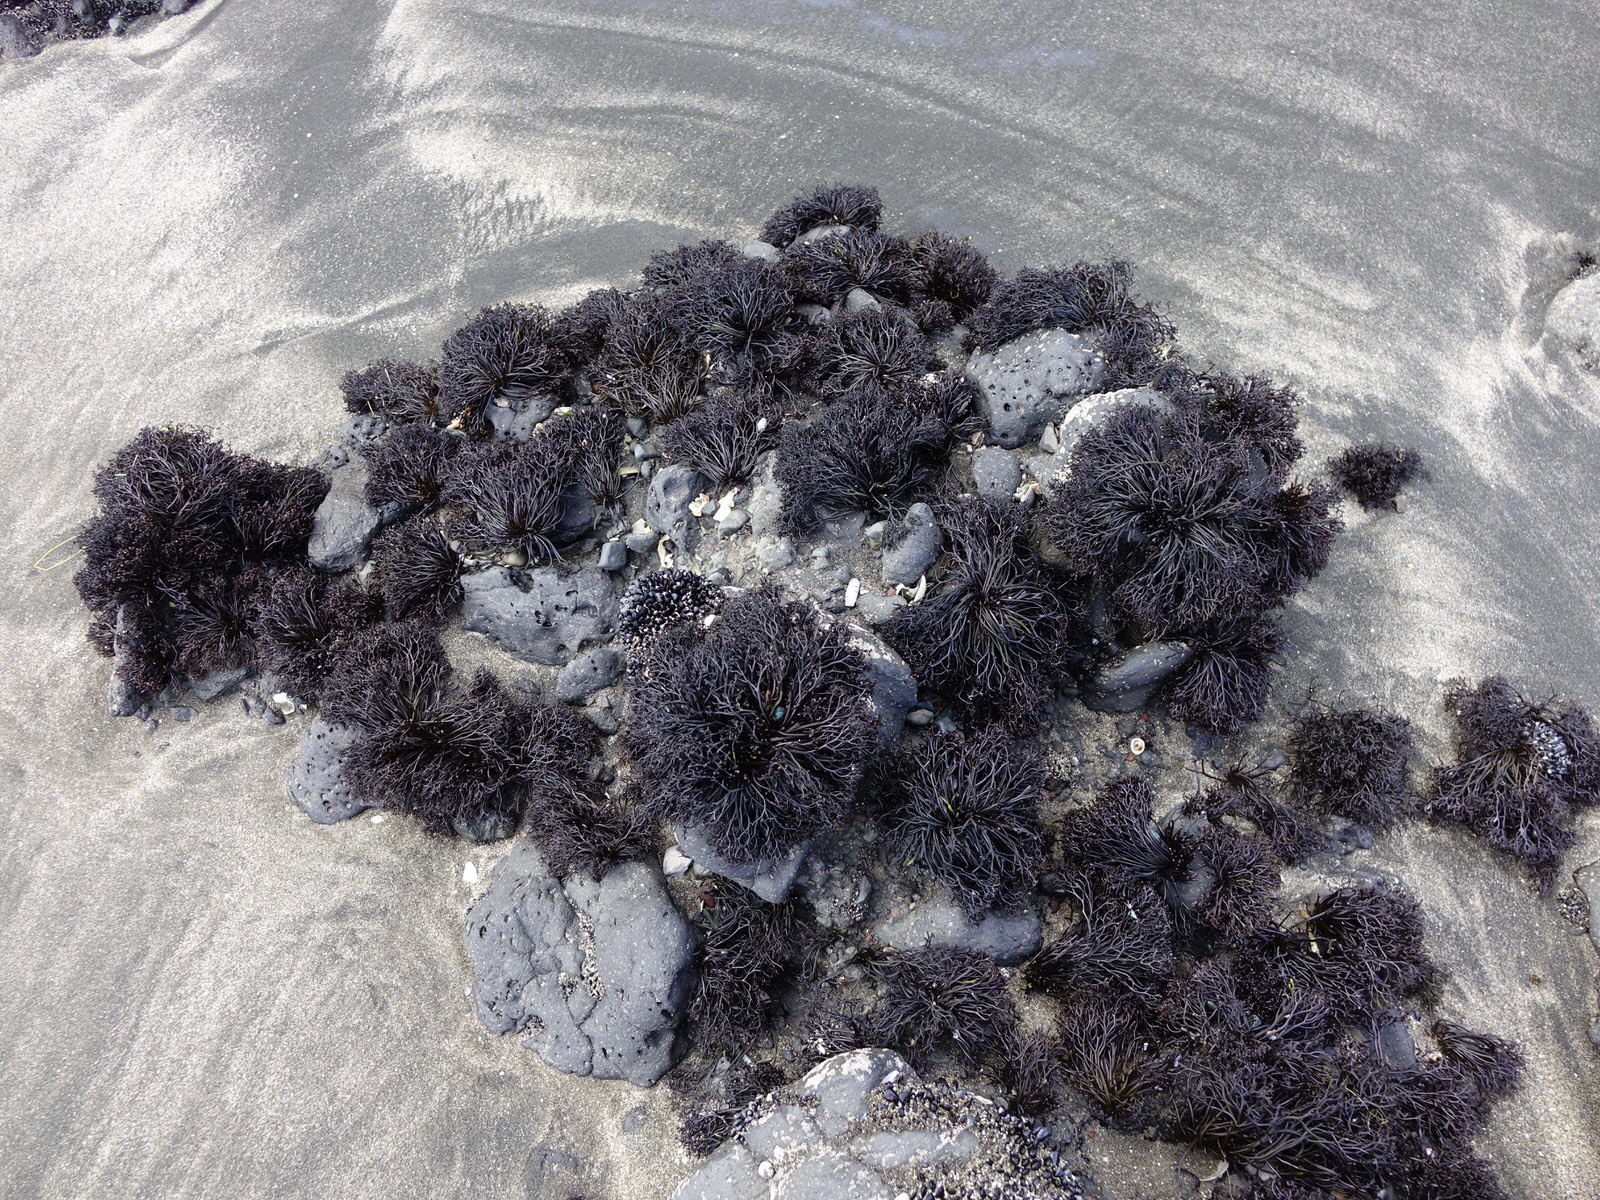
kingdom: Plantae
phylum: Rhodophyta
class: Florideophyceae
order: Gigartinales
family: Gigartinaceae
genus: Psilophycus
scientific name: Psilophycus alveatus
